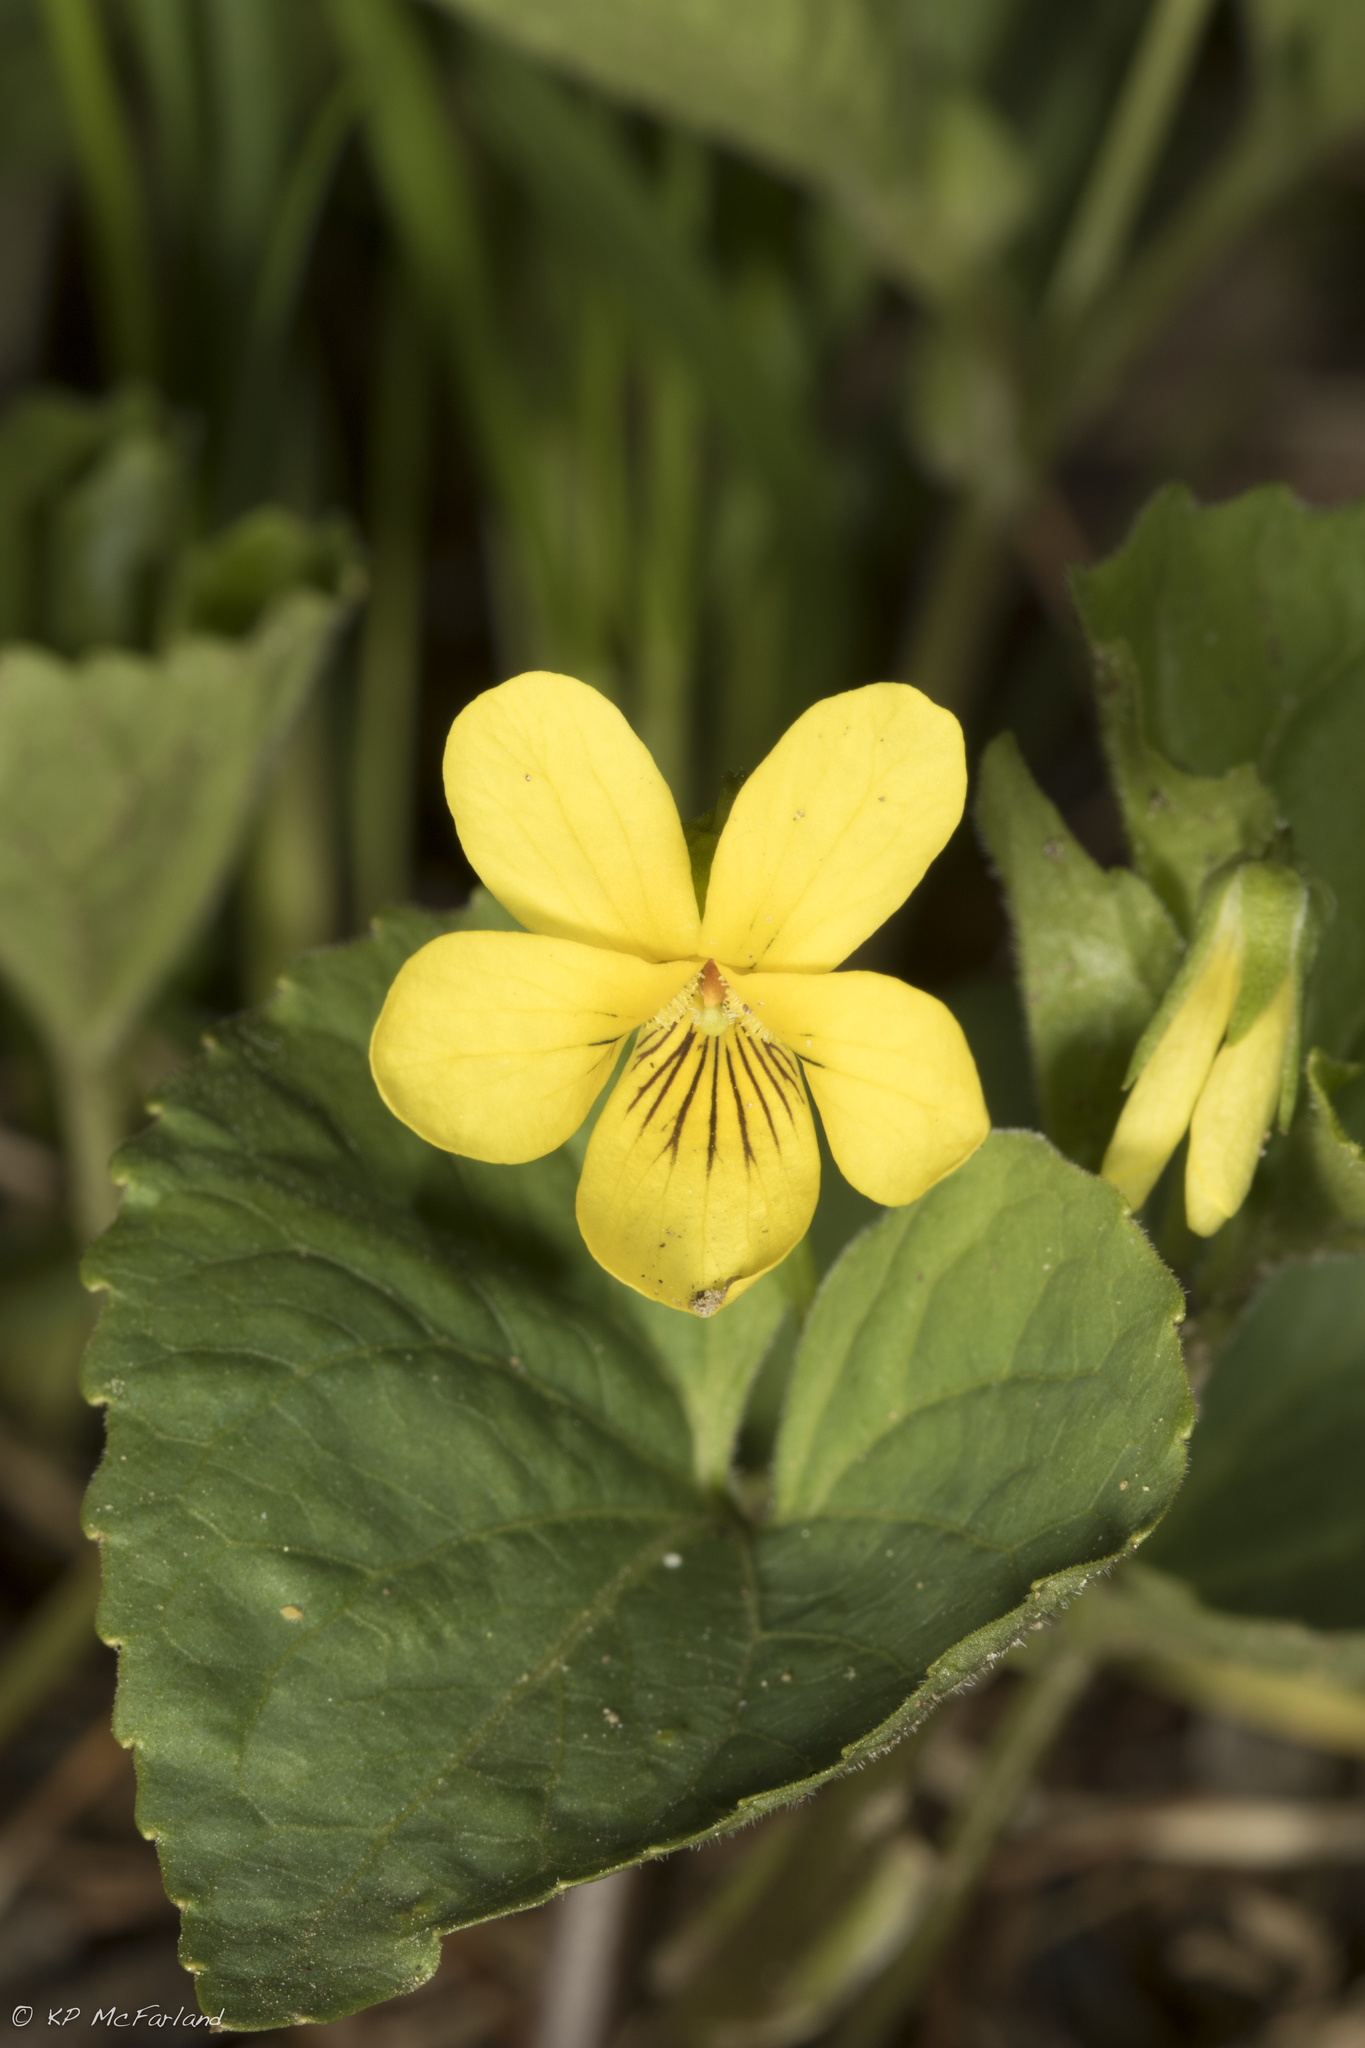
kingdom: Plantae
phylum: Tracheophyta
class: Magnoliopsida
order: Malpighiales
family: Violaceae
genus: Viola
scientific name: Viola eriocarpa
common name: Smooth yellow violet
